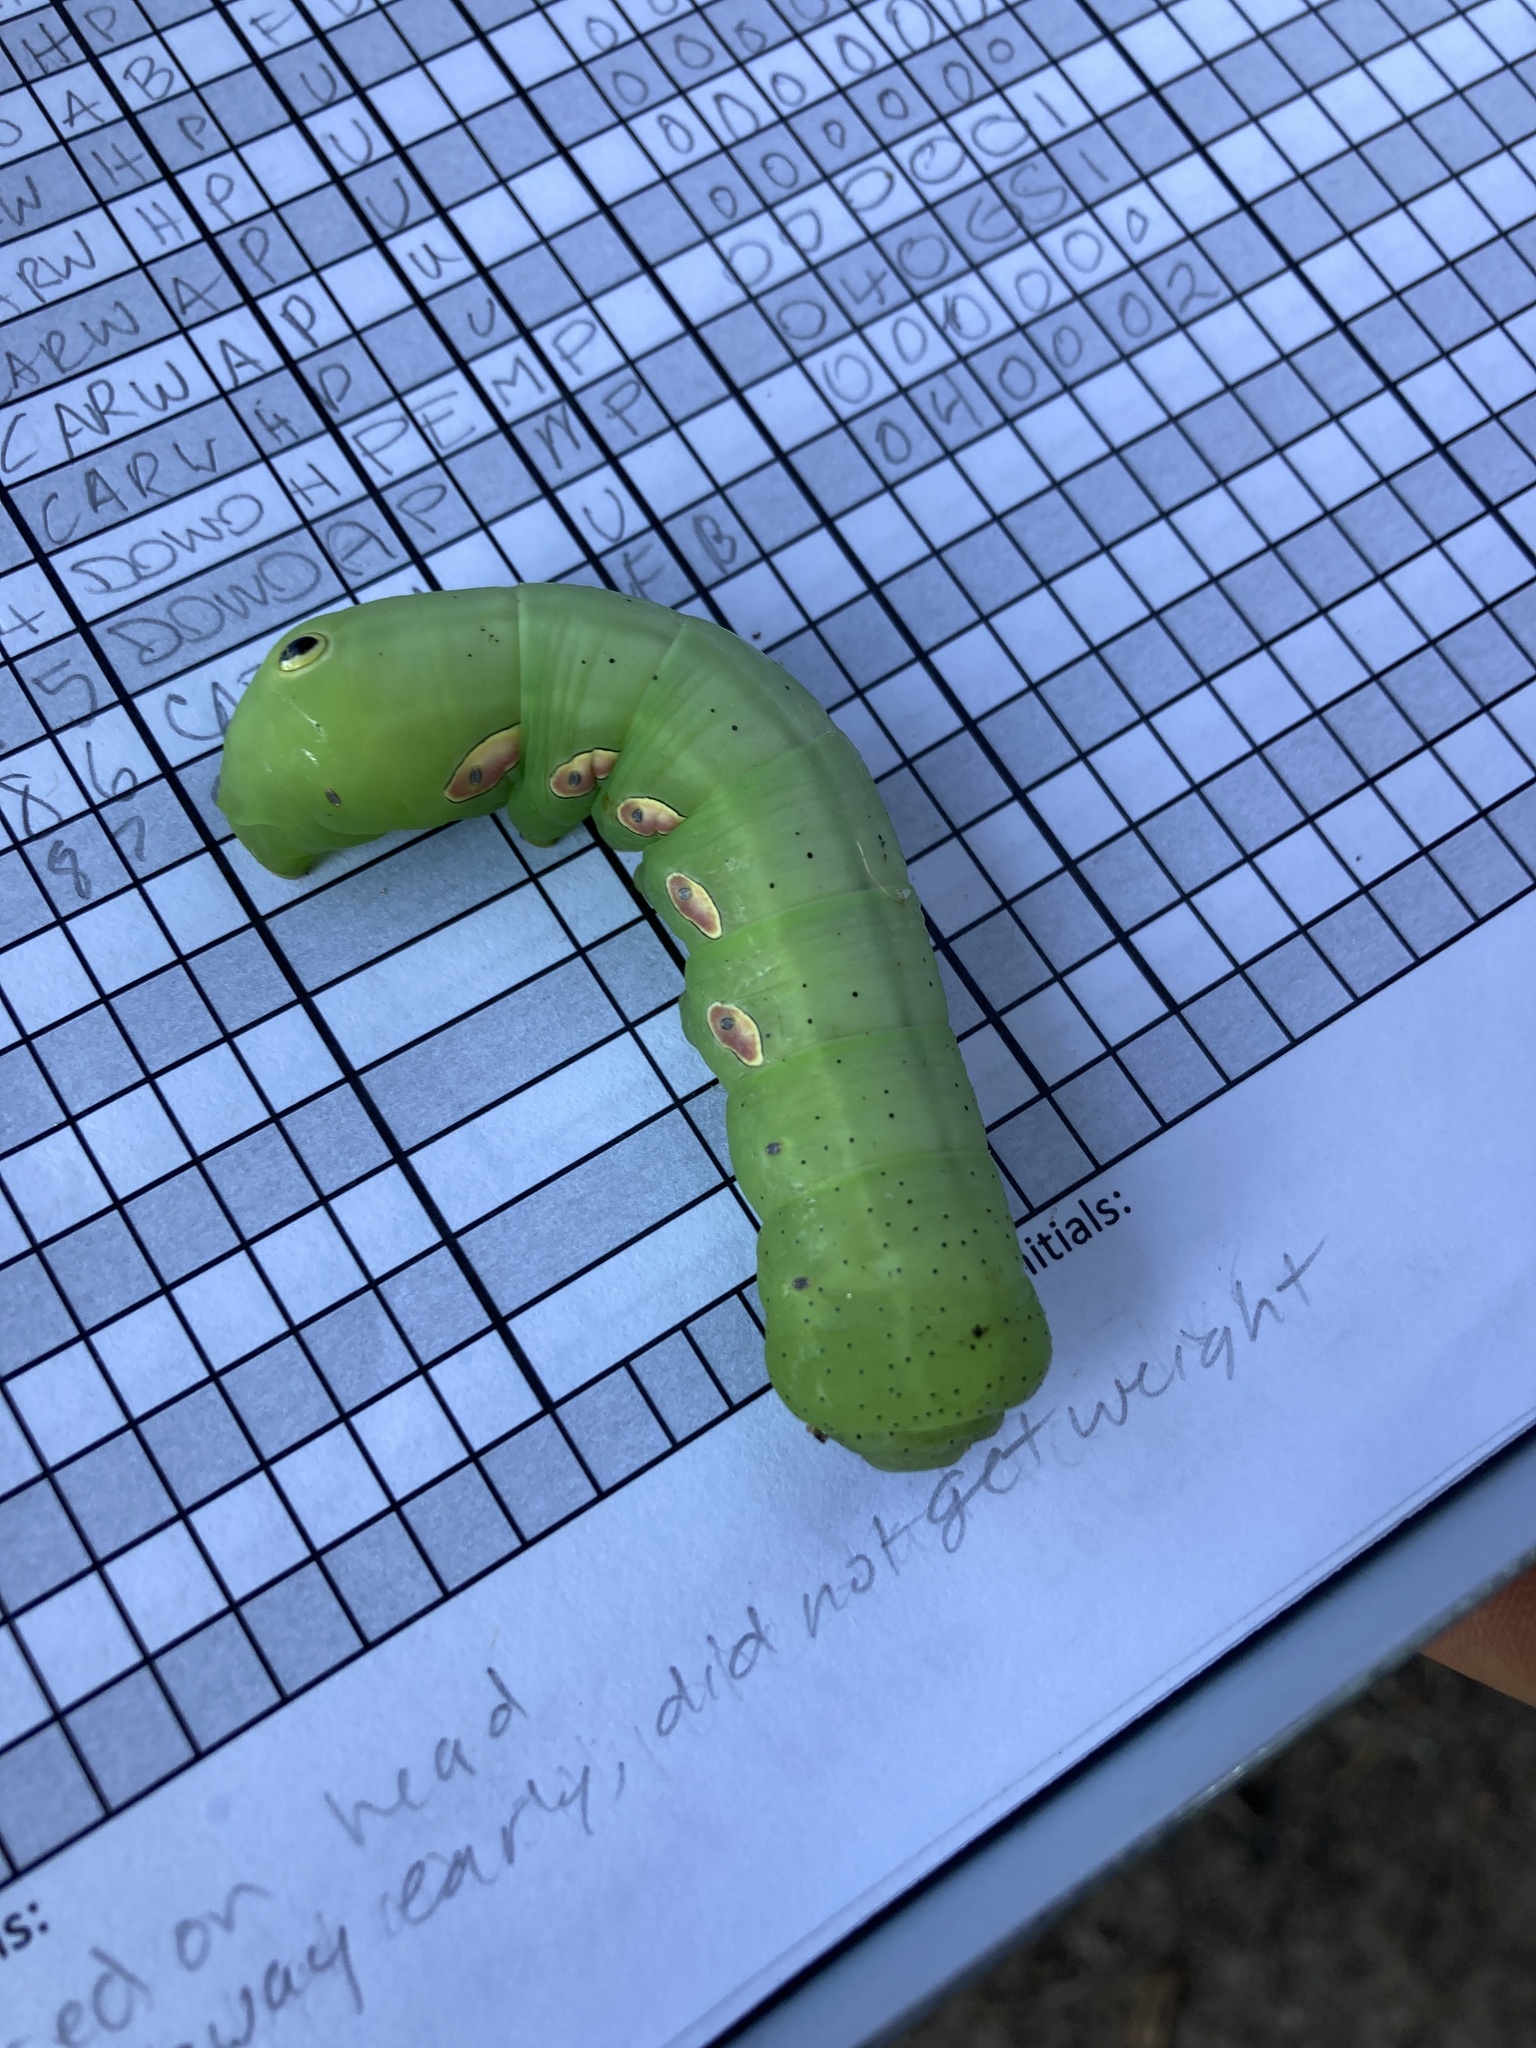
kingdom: Animalia
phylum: Arthropoda
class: Insecta
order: Lepidoptera
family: Sphingidae
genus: Eumorpha
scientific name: Eumorpha pandorus
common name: Pandora sphinx
